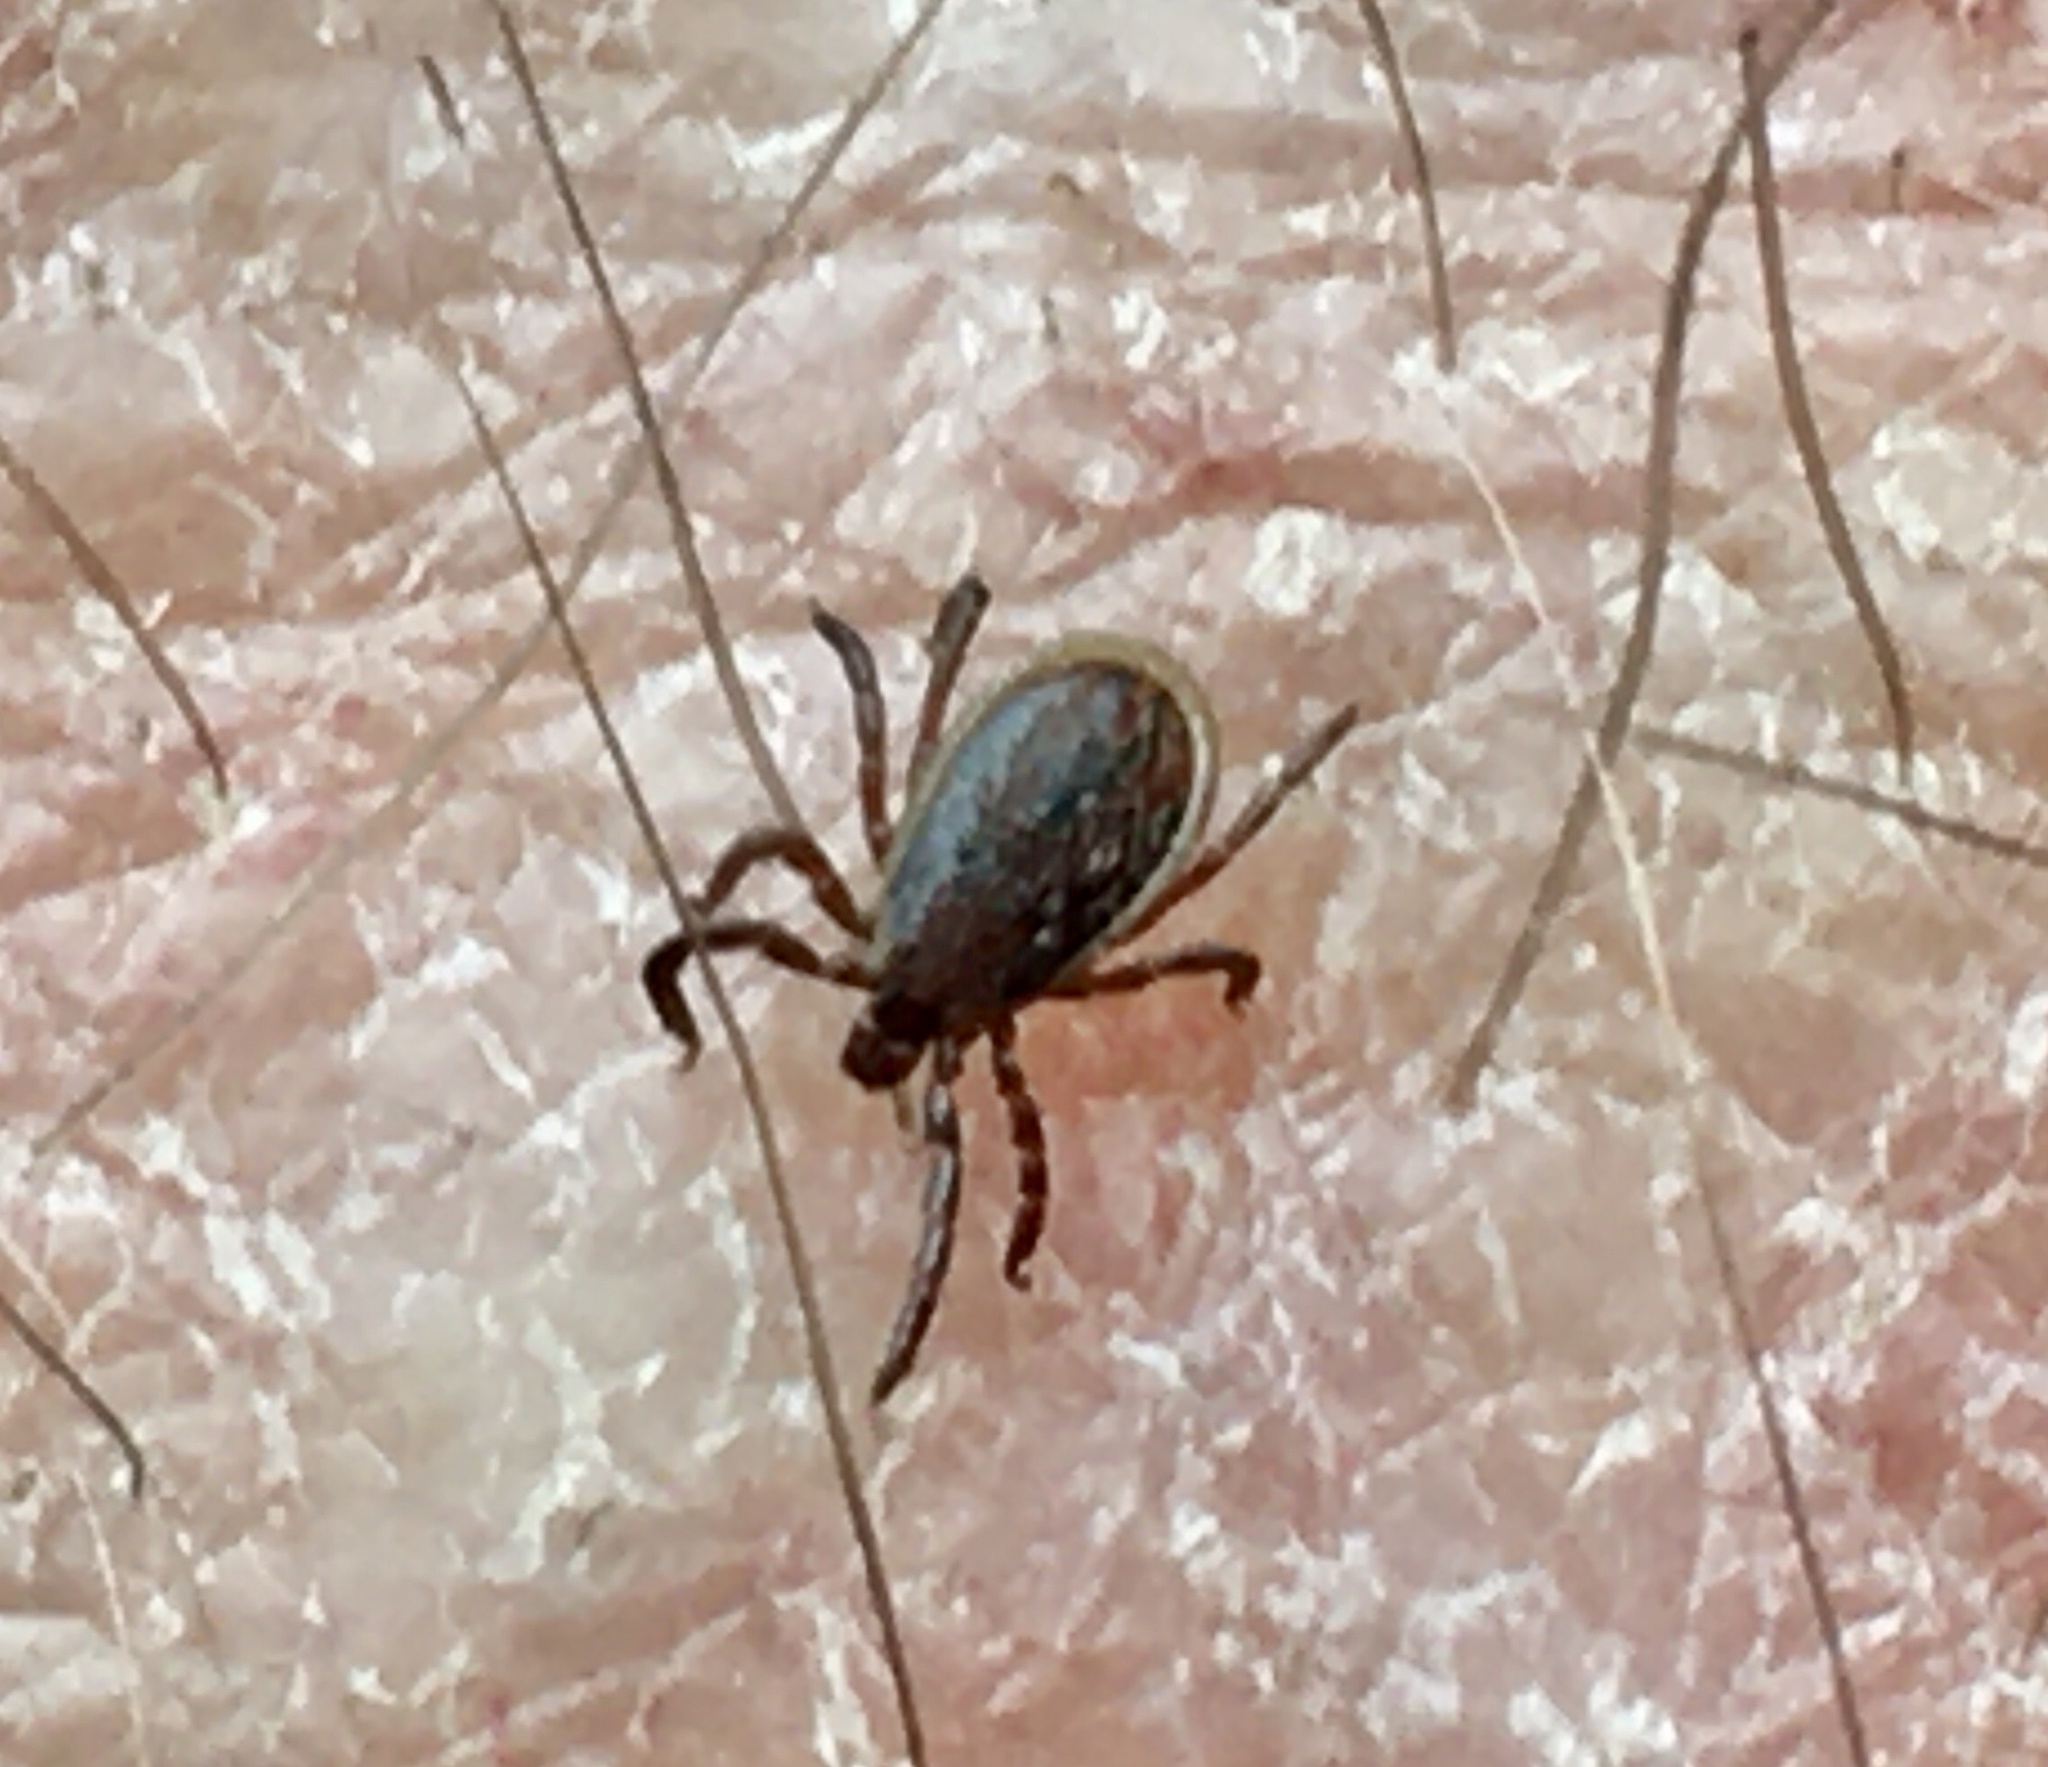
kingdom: Animalia
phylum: Arthropoda
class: Arachnida
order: Ixodida
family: Ixodidae
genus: Ixodes
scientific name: Ixodes scapularis
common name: Black legged tick
